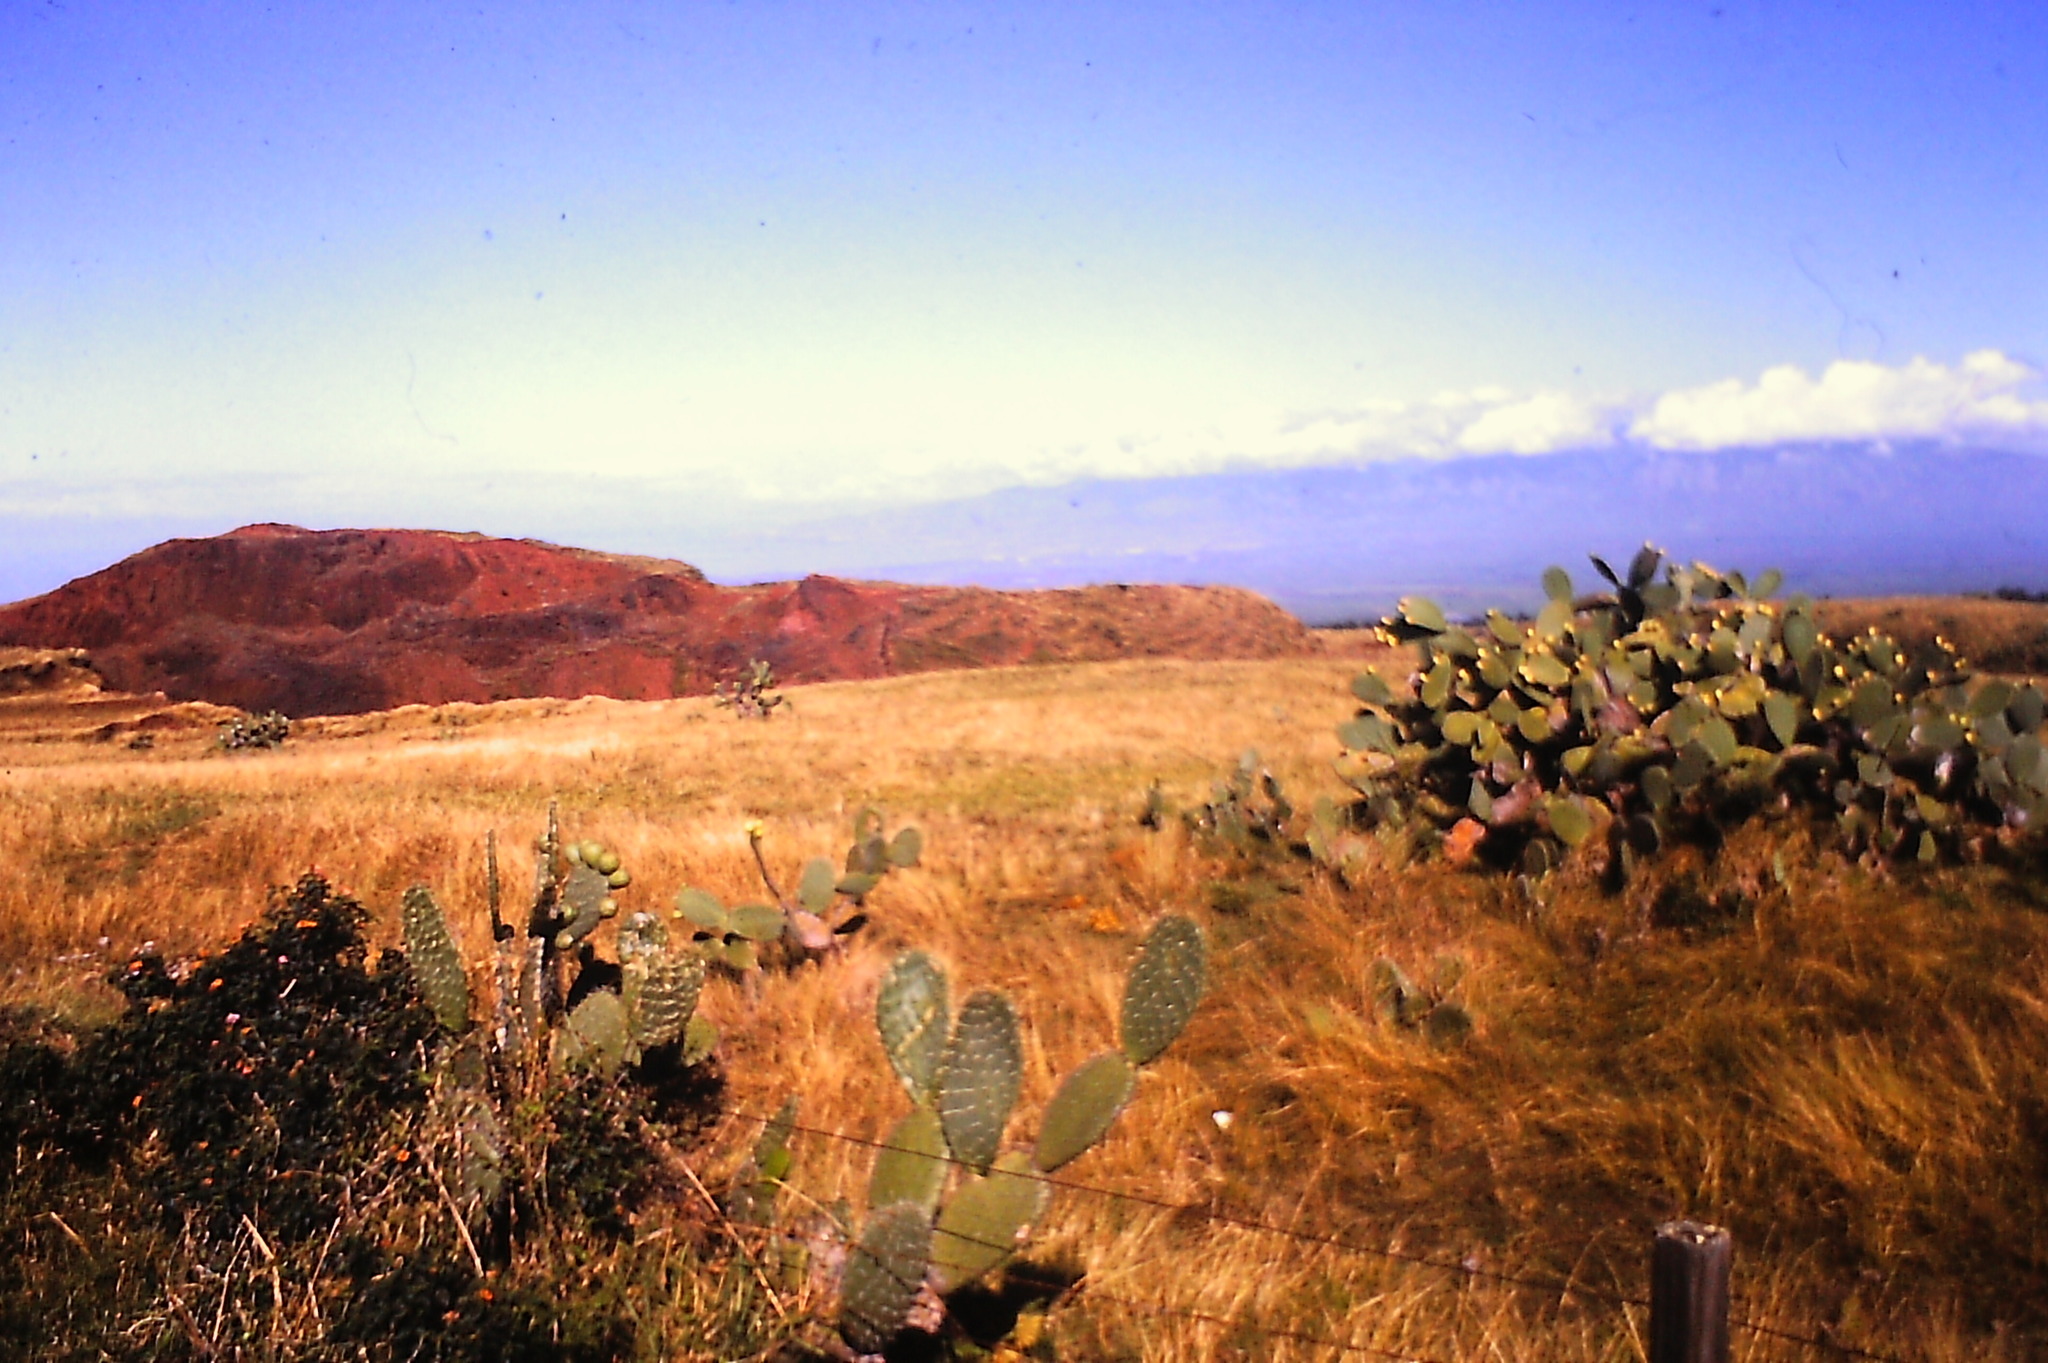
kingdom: Plantae
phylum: Tracheophyta
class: Magnoliopsida
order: Caryophyllales
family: Cactaceae
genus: Opuntia
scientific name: Opuntia ficus-indica
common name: Barbary fig
